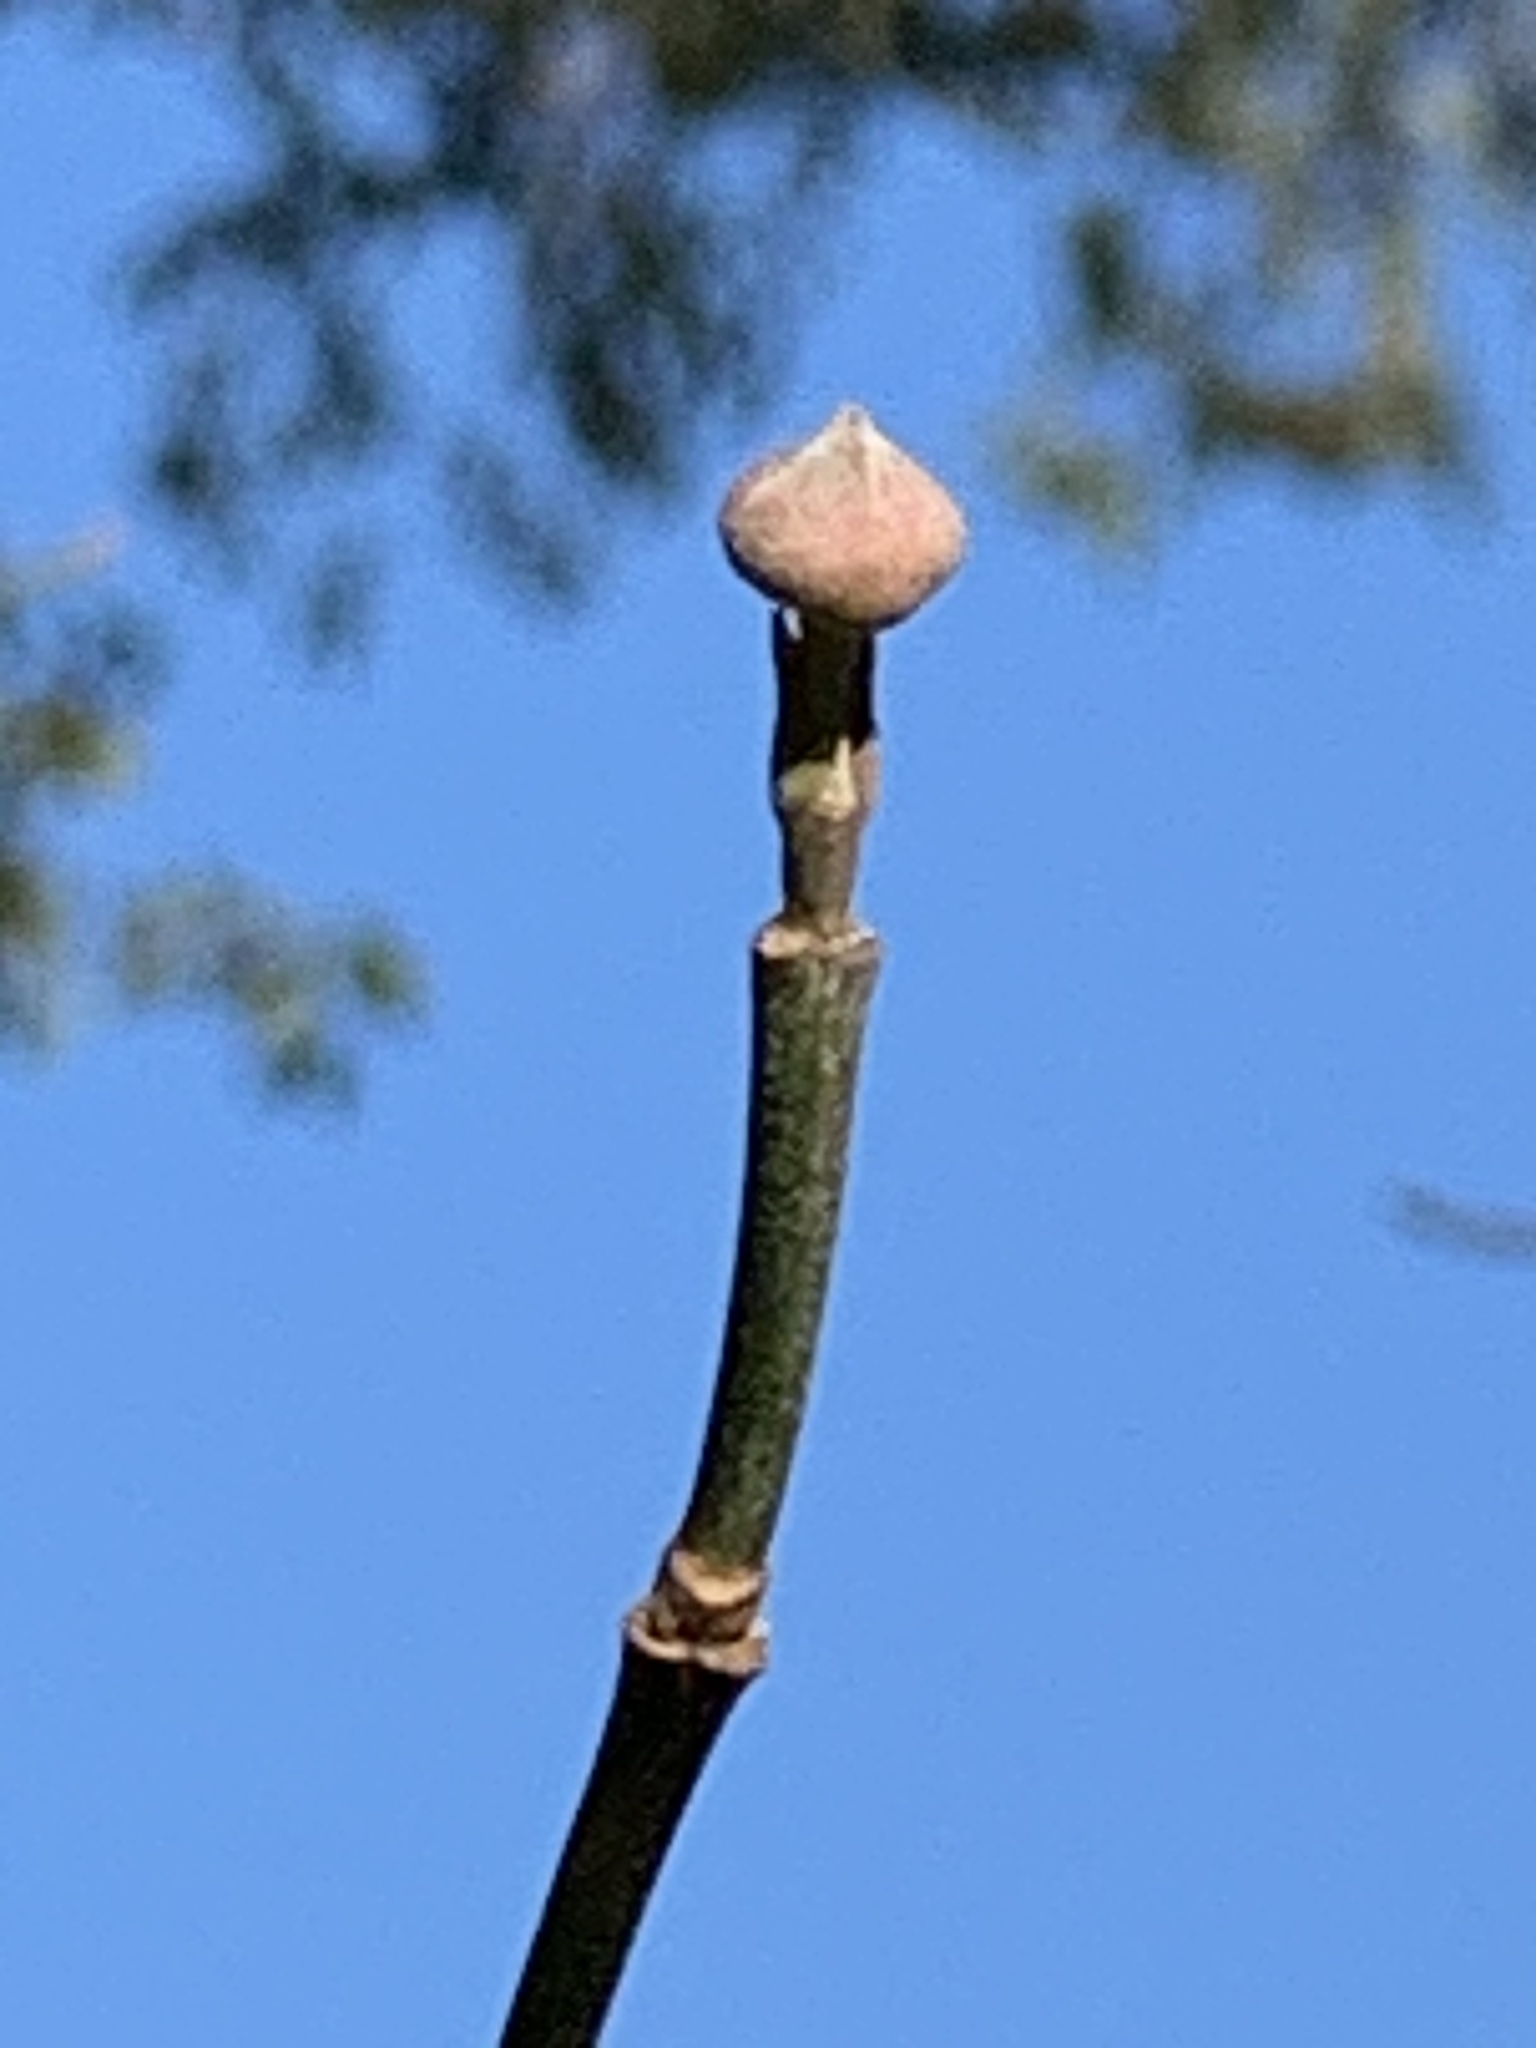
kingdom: Plantae
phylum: Tracheophyta
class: Magnoliopsida
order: Cornales
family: Cornaceae
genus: Cornus
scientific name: Cornus florida
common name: Flowering dogwood
